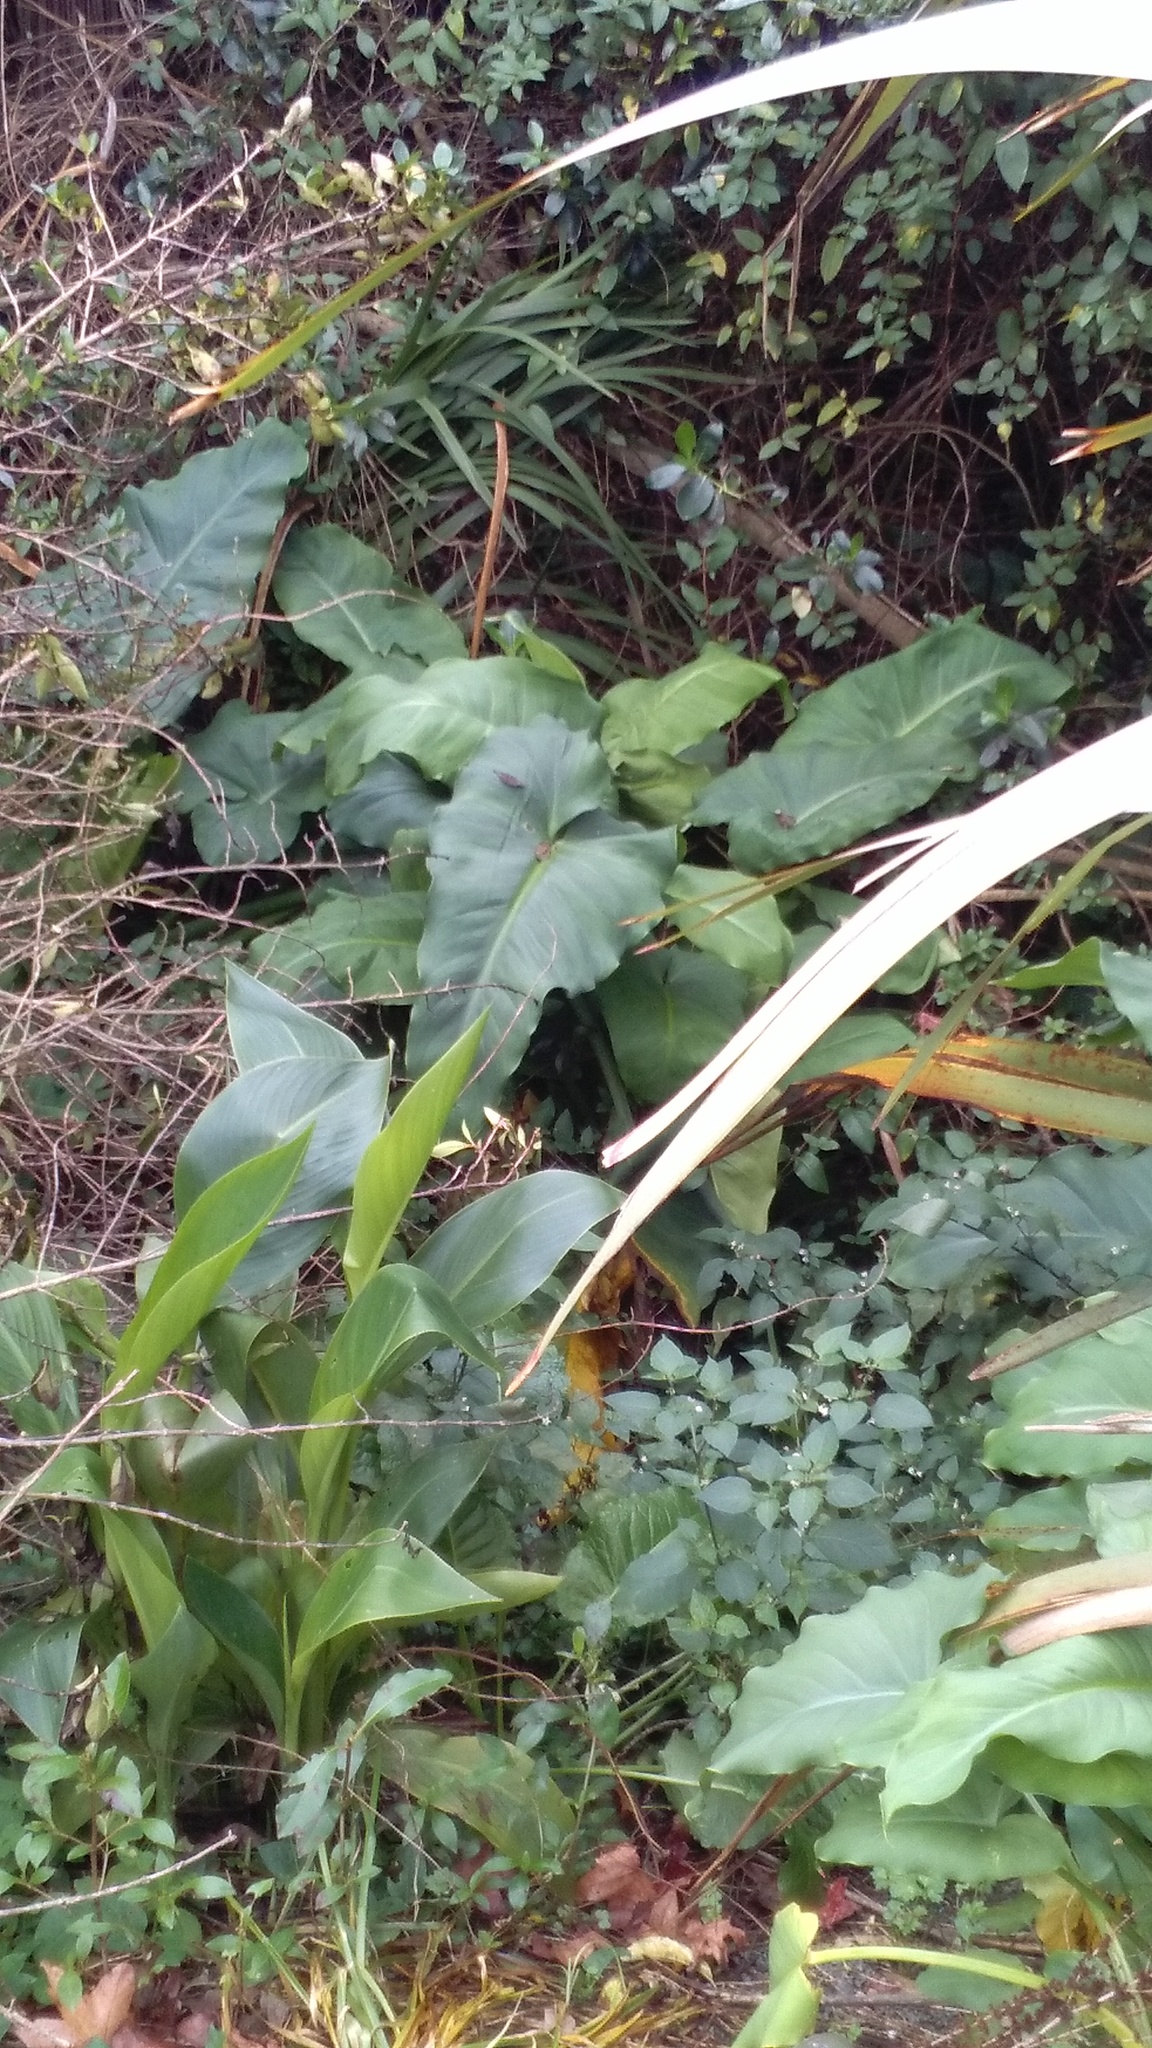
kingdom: Plantae
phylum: Tracheophyta
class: Liliopsida
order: Alismatales
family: Araceae
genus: Zantedeschia
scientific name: Zantedeschia aethiopica
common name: Altar-lily
